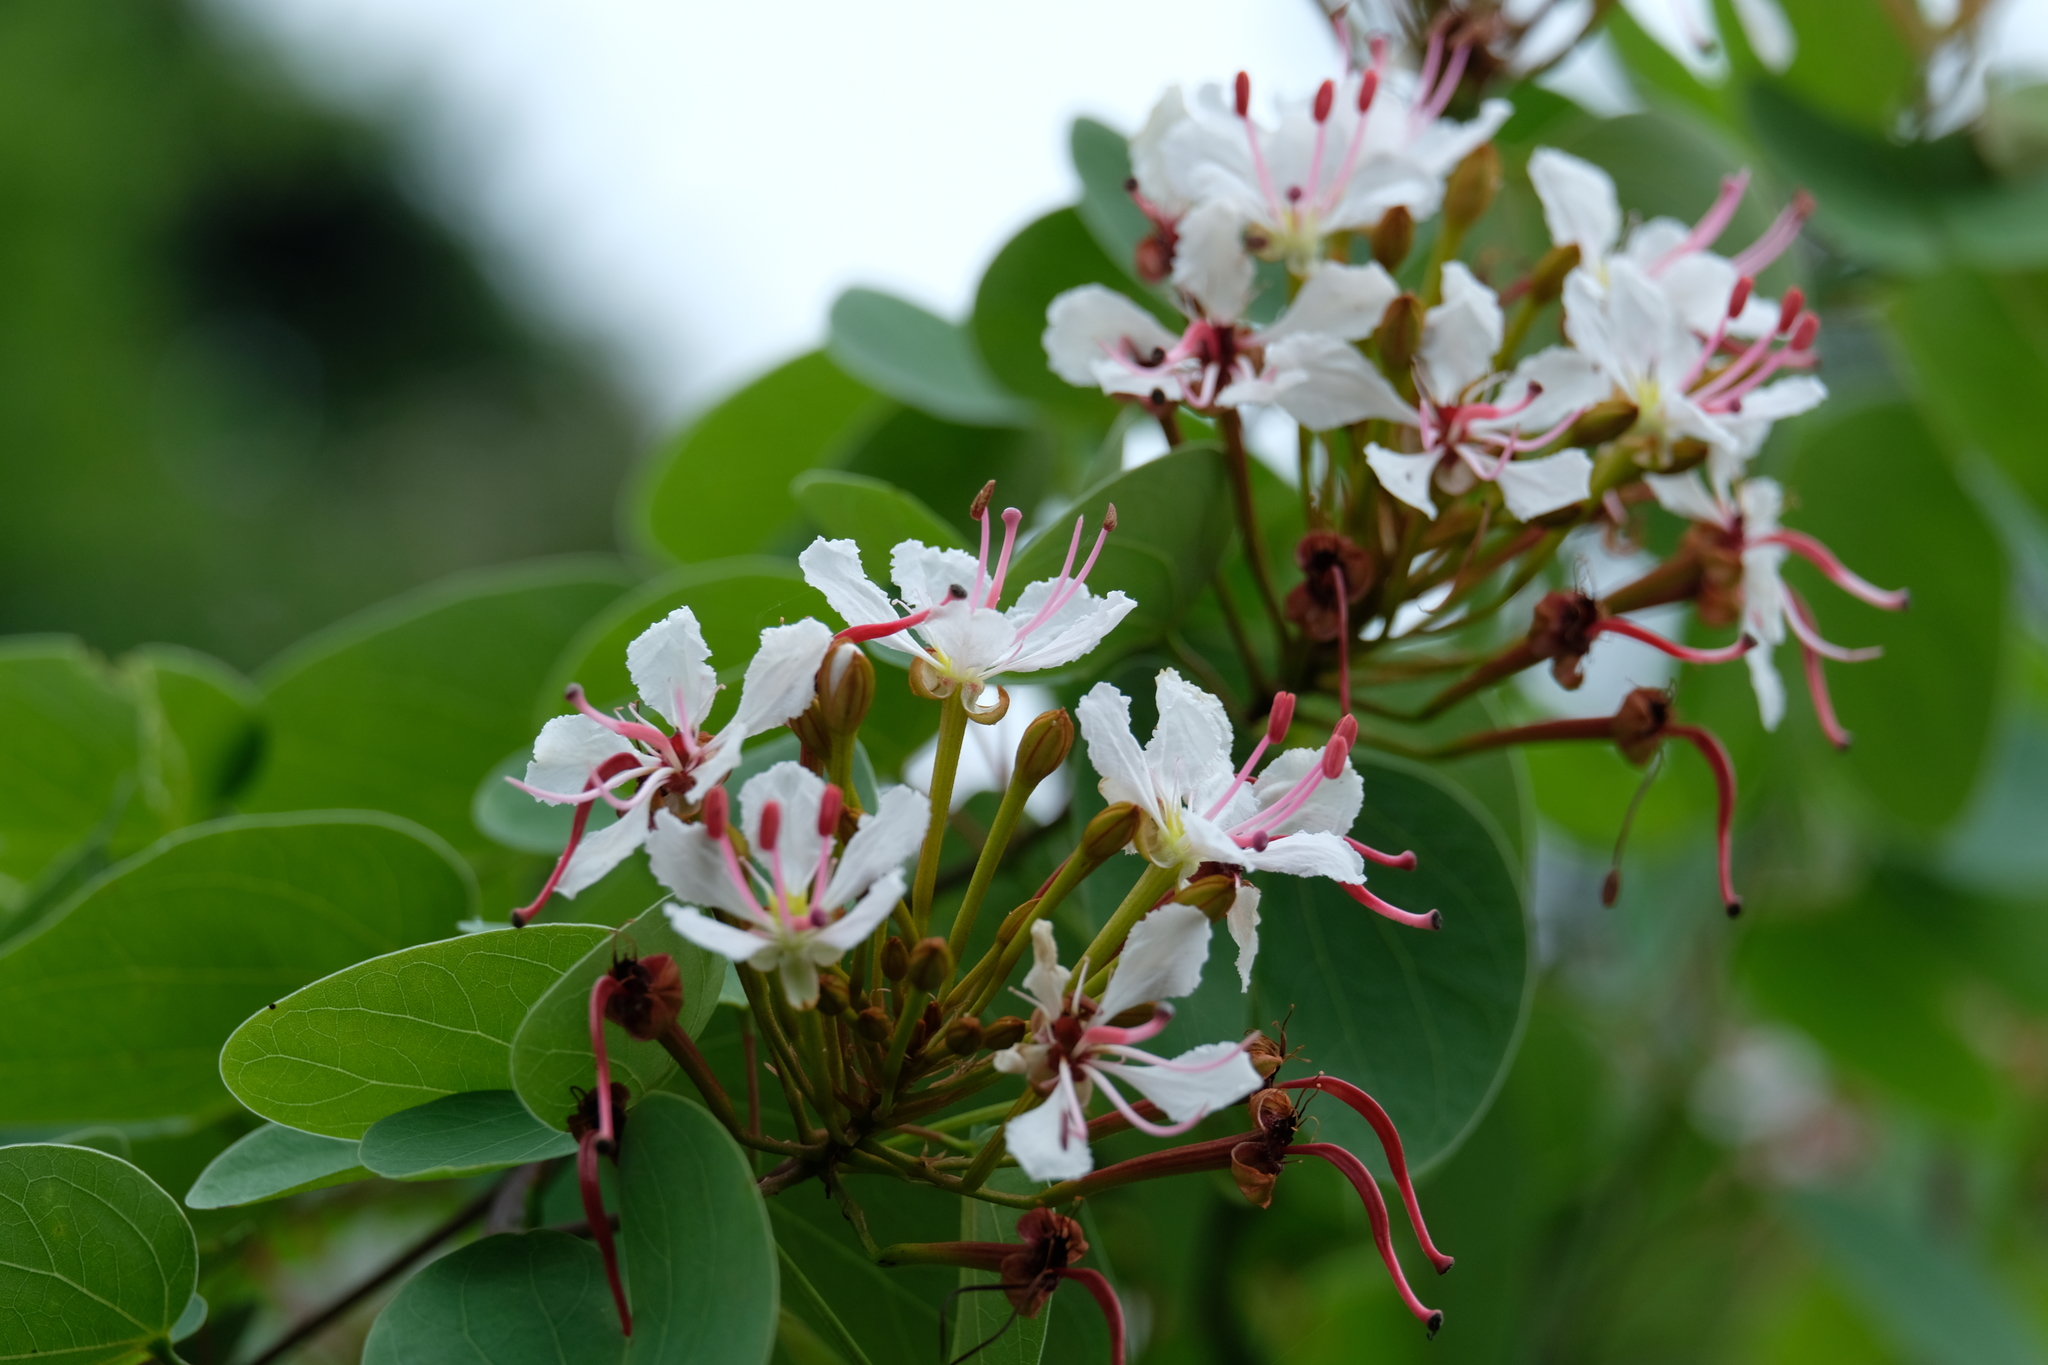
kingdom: Plantae
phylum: Tracheophyta
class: Magnoliopsida
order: Fabales
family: Fabaceae
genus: Cheniella
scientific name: Cheniella glauca
